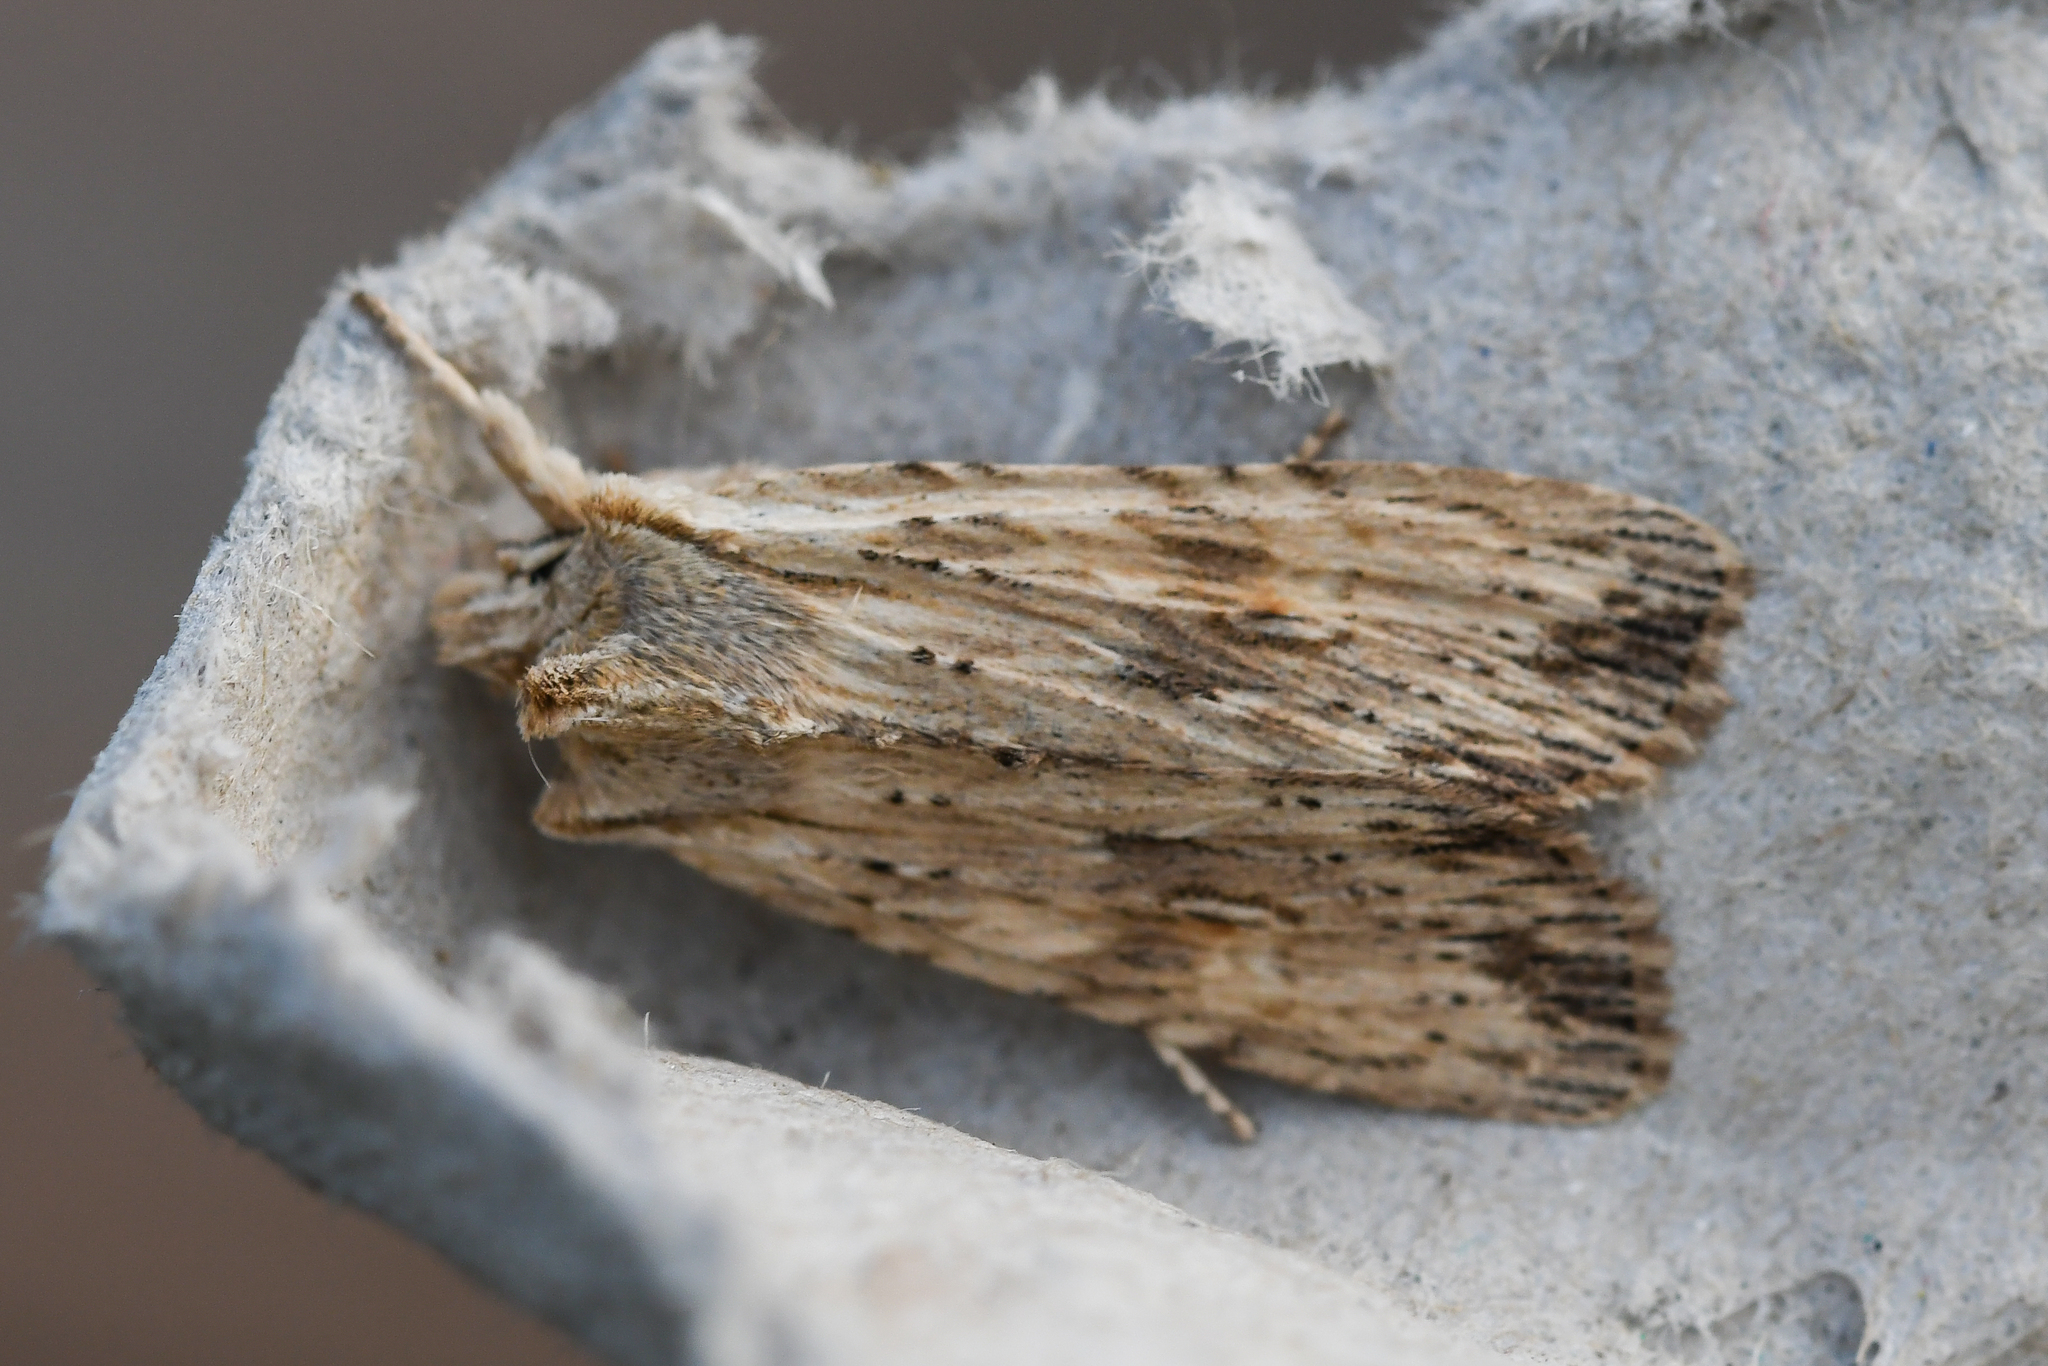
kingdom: Animalia
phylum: Arthropoda
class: Insecta
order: Lepidoptera
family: Noctuidae
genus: Lithophane
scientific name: Lithophane socia
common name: Pale pinion
